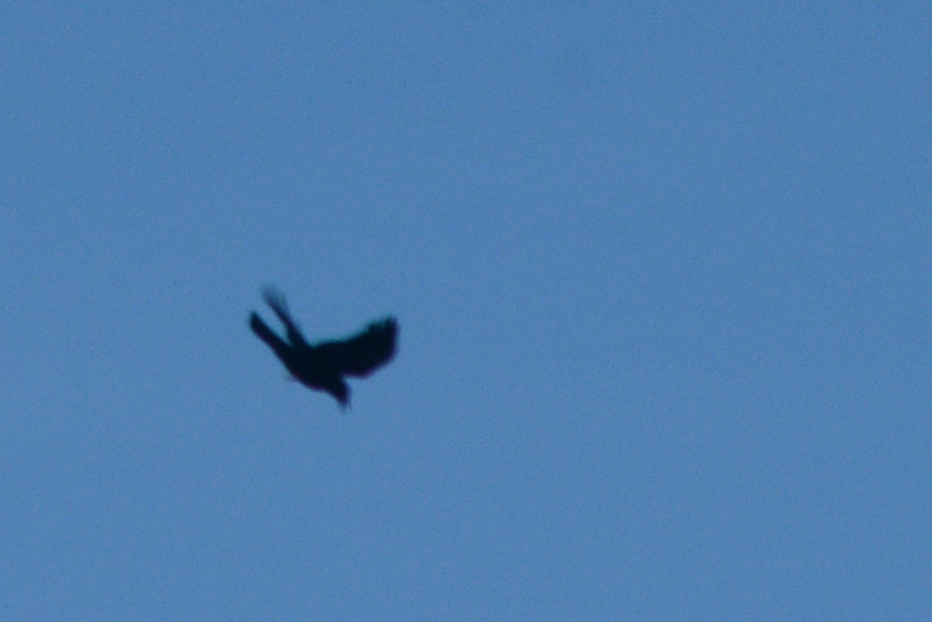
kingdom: Animalia
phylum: Chordata
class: Aves
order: Passeriformes
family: Corvidae
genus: Corvus
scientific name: Corvus brachyrhynchos
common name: American crow
